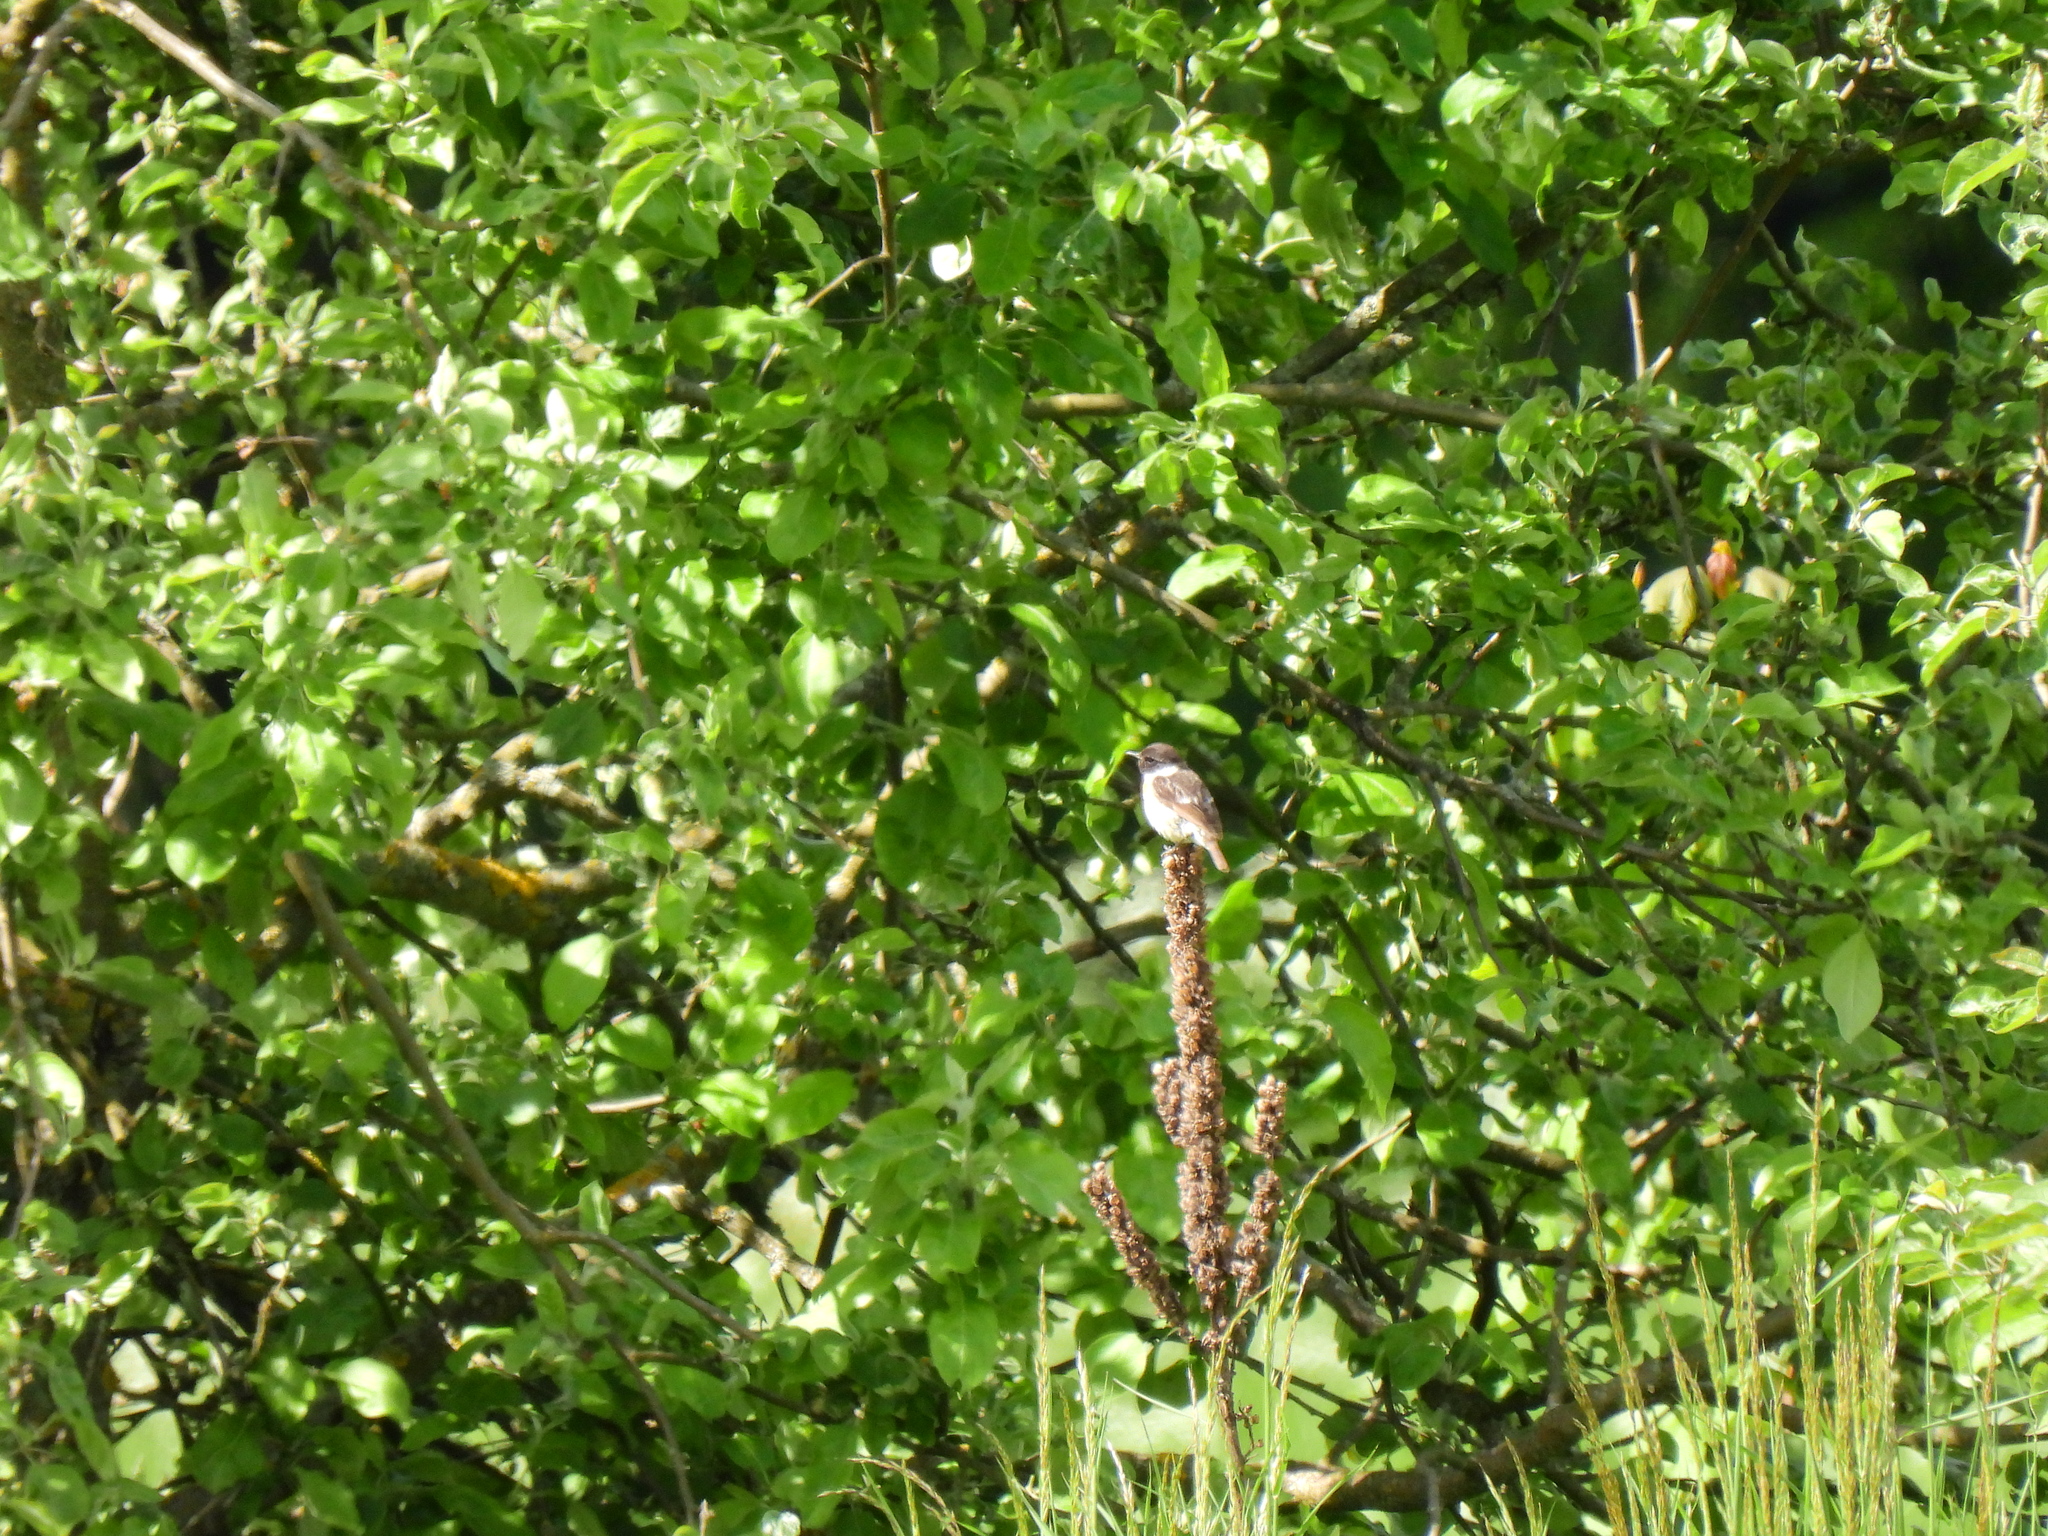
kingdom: Animalia
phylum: Chordata
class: Aves
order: Passeriformes
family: Muscicapidae
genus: Saxicola
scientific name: Saxicola rubicola
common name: European stonechat
